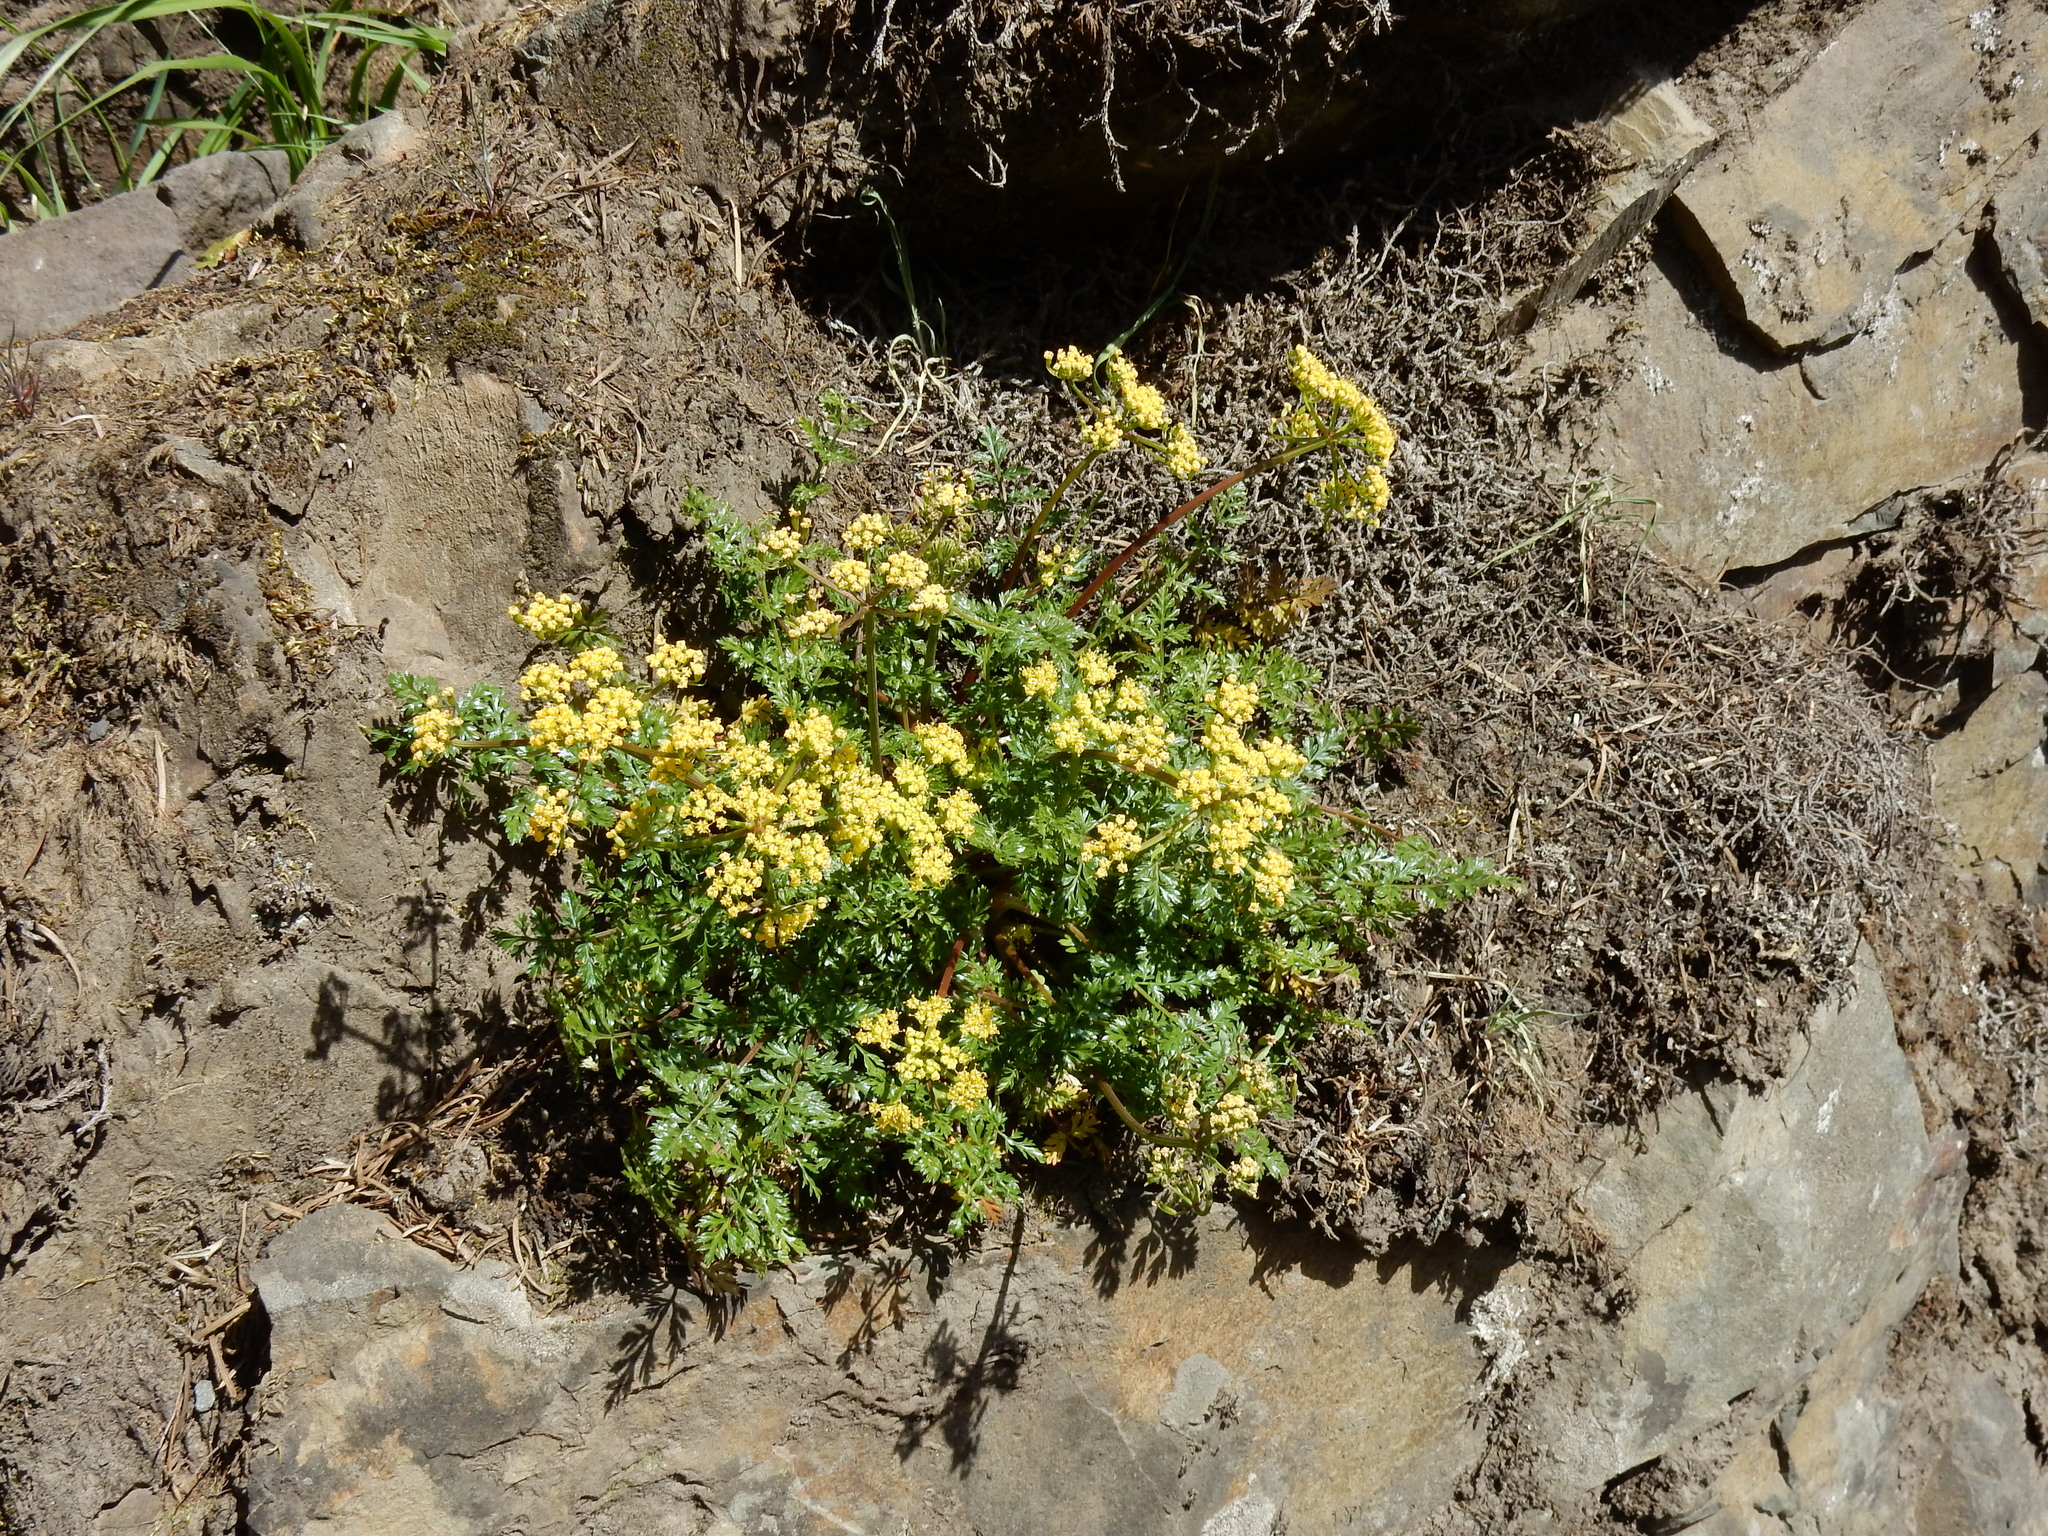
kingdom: Plantae
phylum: Tracheophyta
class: Magnoliopsida
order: Apiales
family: Apiaceae
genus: Lomatium
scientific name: Lomatium hallii
